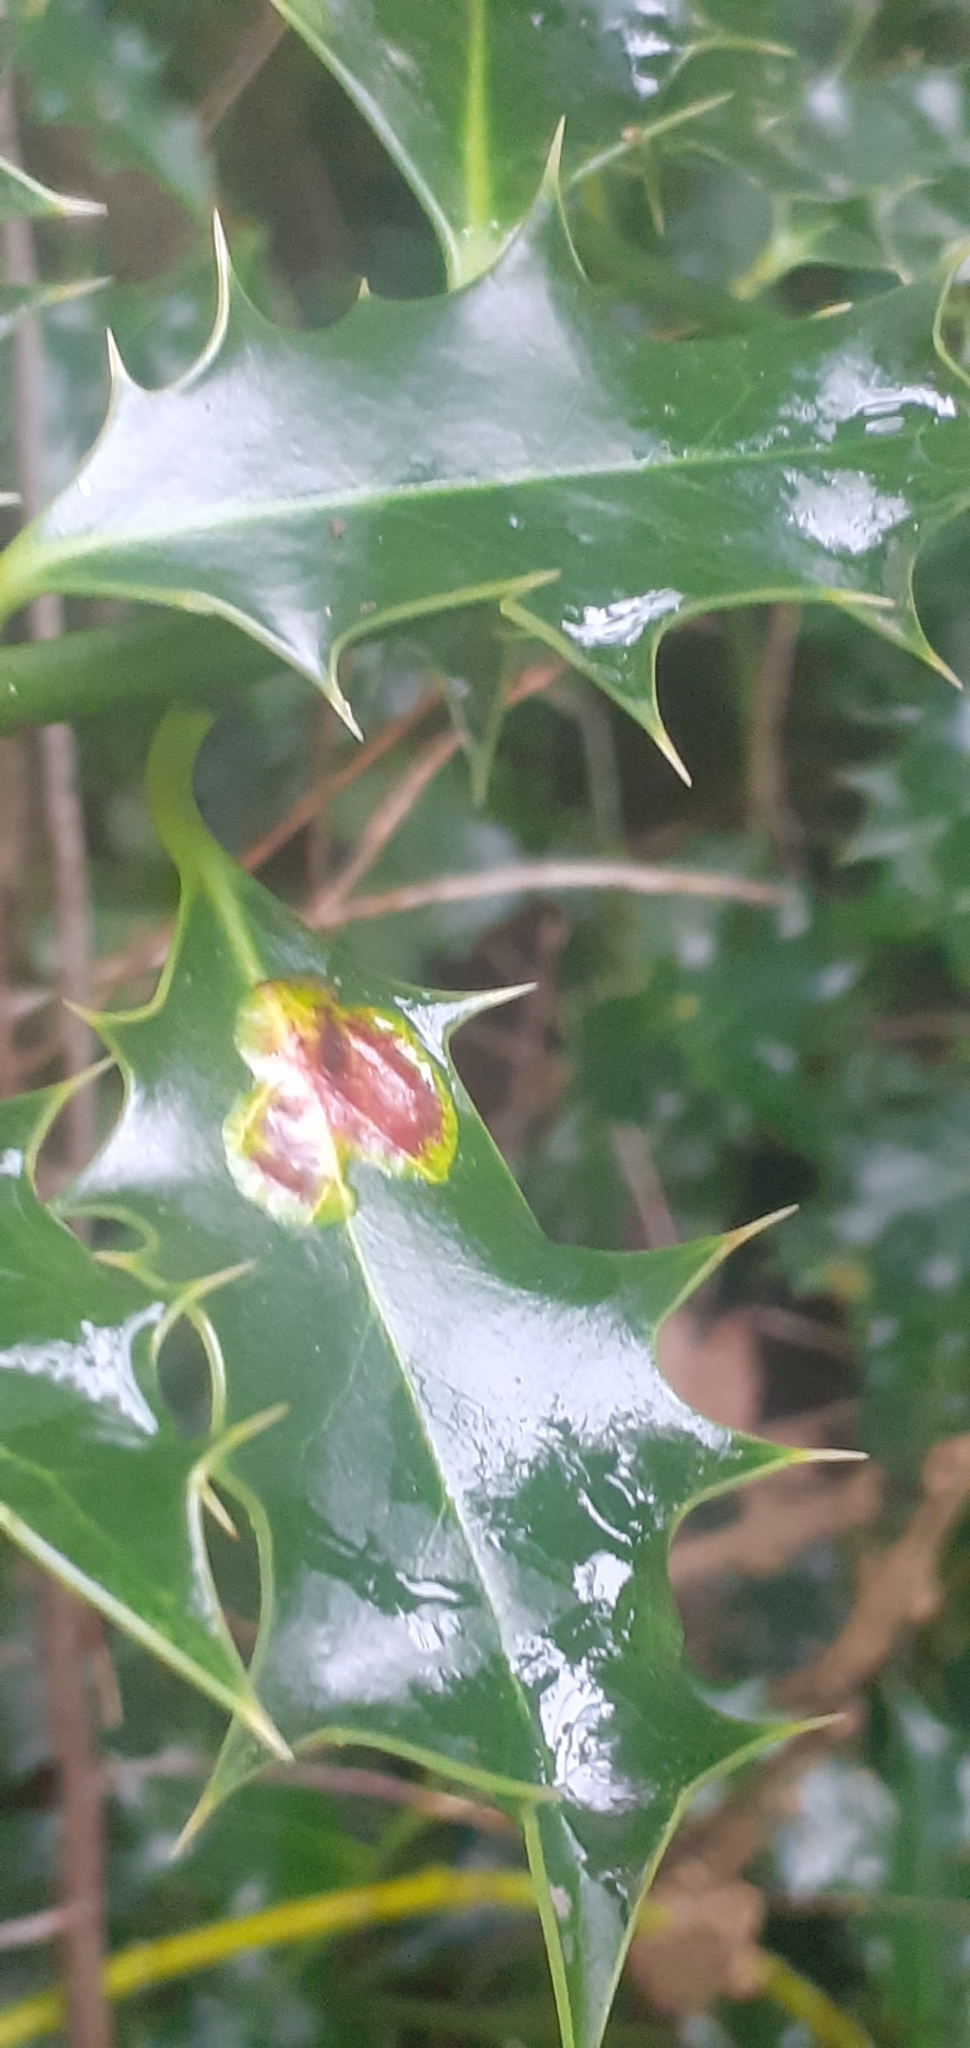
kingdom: Animalia
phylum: Arthropoda
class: Insecta
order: Diptera
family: Agromyzidae
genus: Phytomyza
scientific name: Phytomyza ilicis
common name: Holly leafminer
